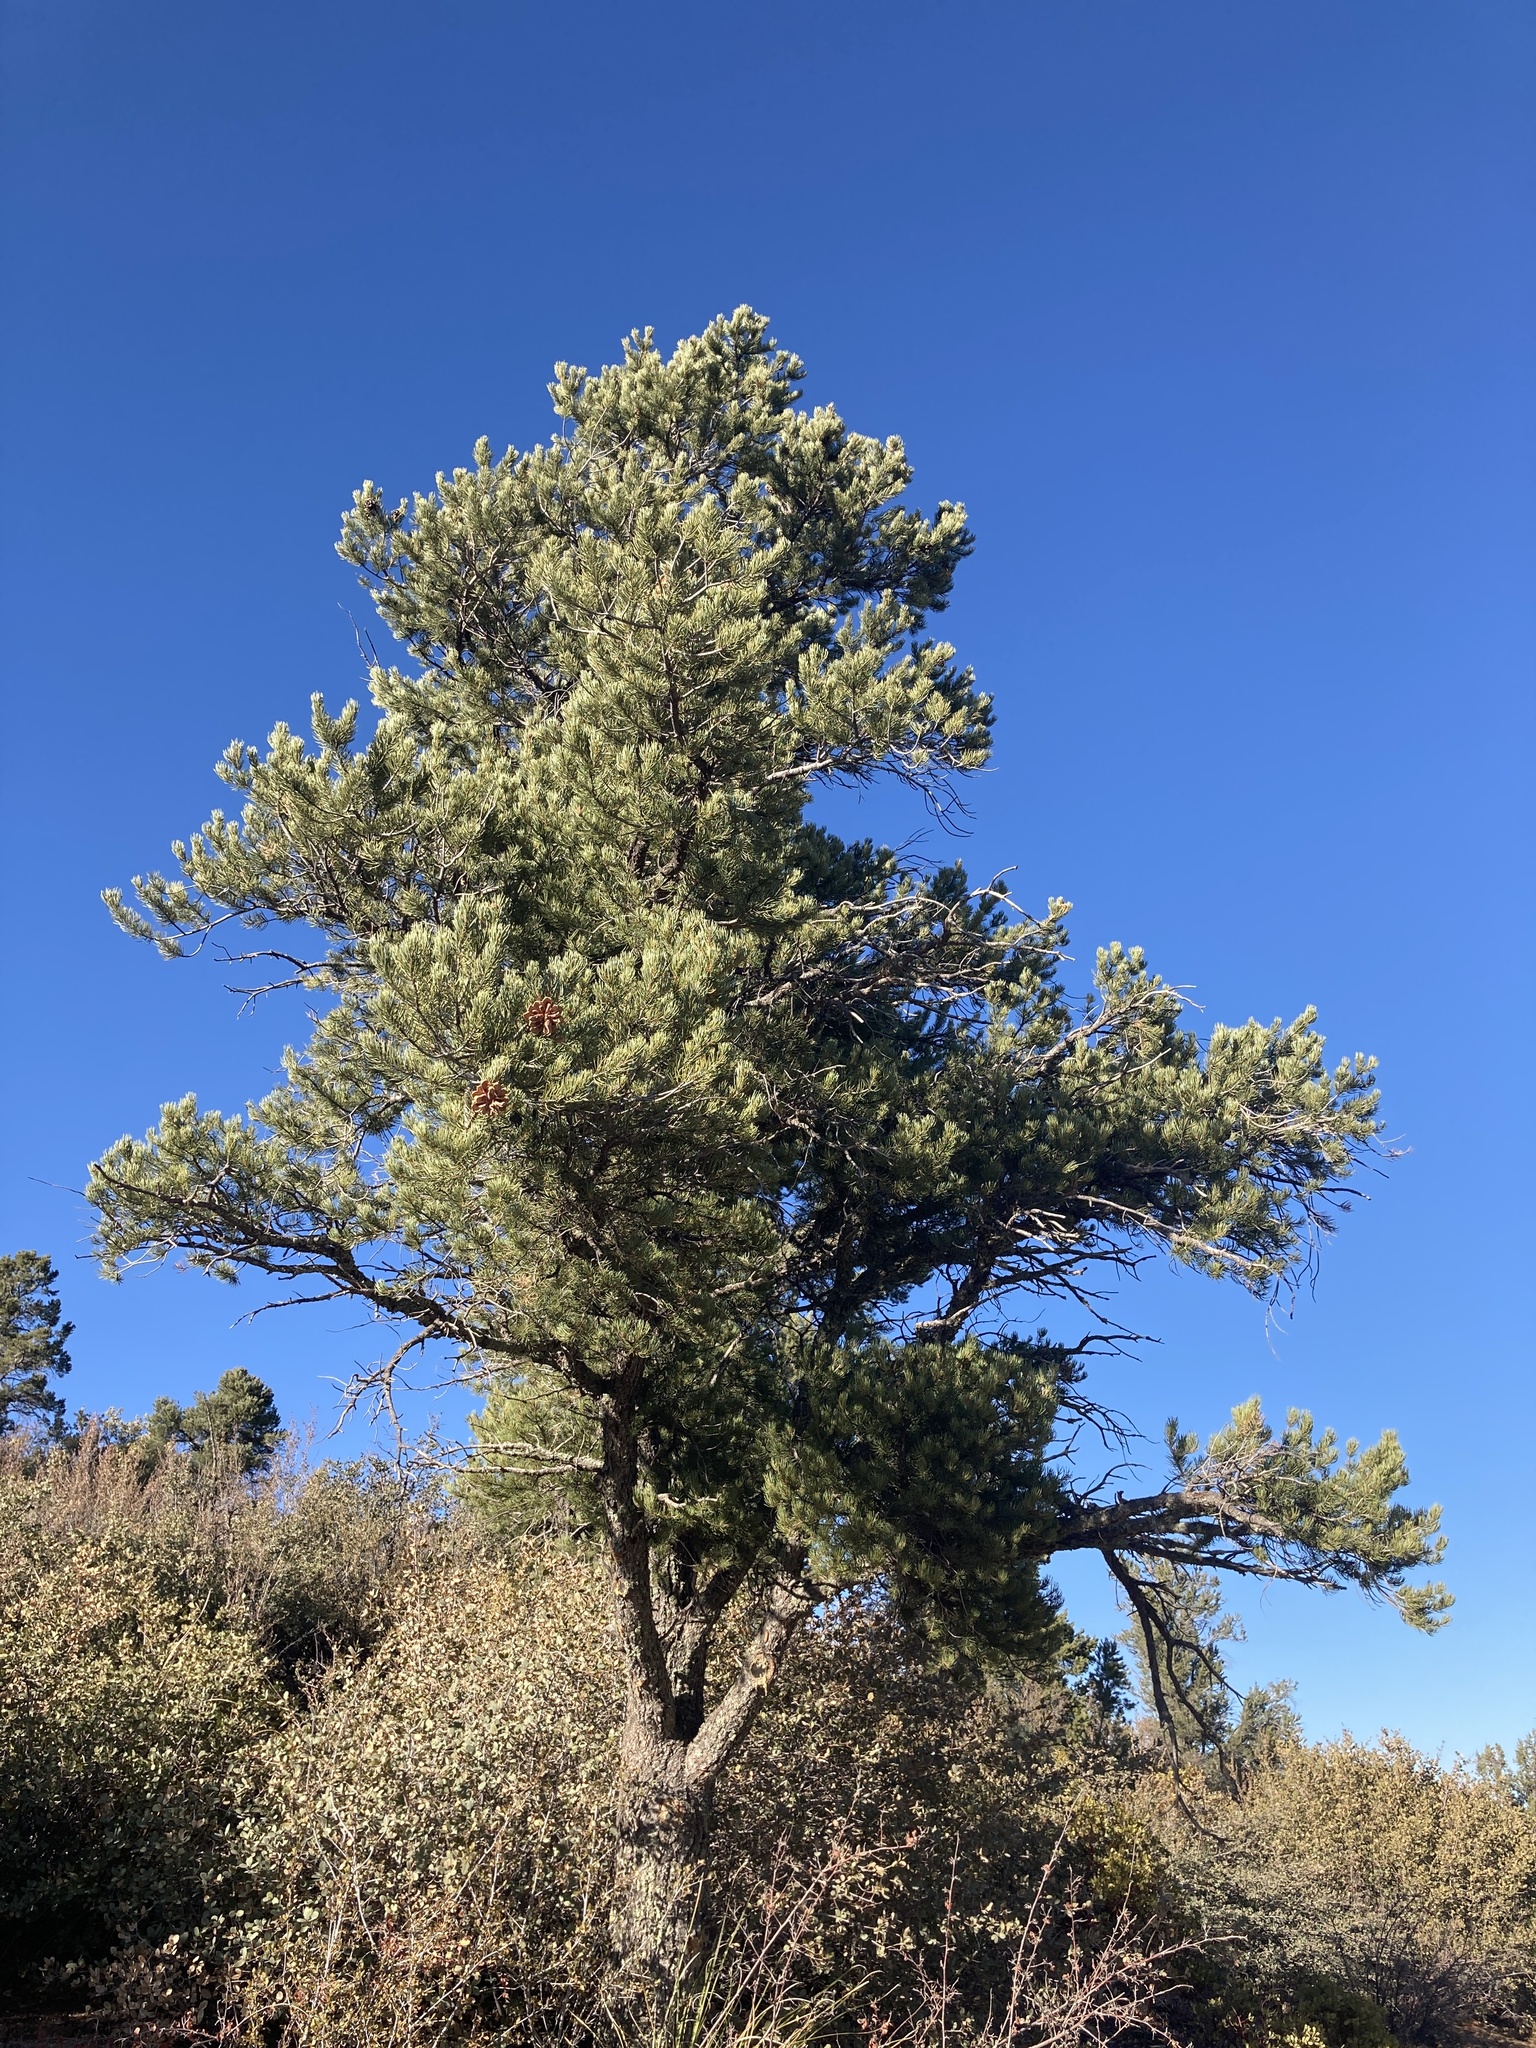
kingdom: Plantae
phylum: Tracheophyta
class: Pinopsida
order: Pinales
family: Pinaceae
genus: Pinus
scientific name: Pinus monophylla
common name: One-leaved nut pine
